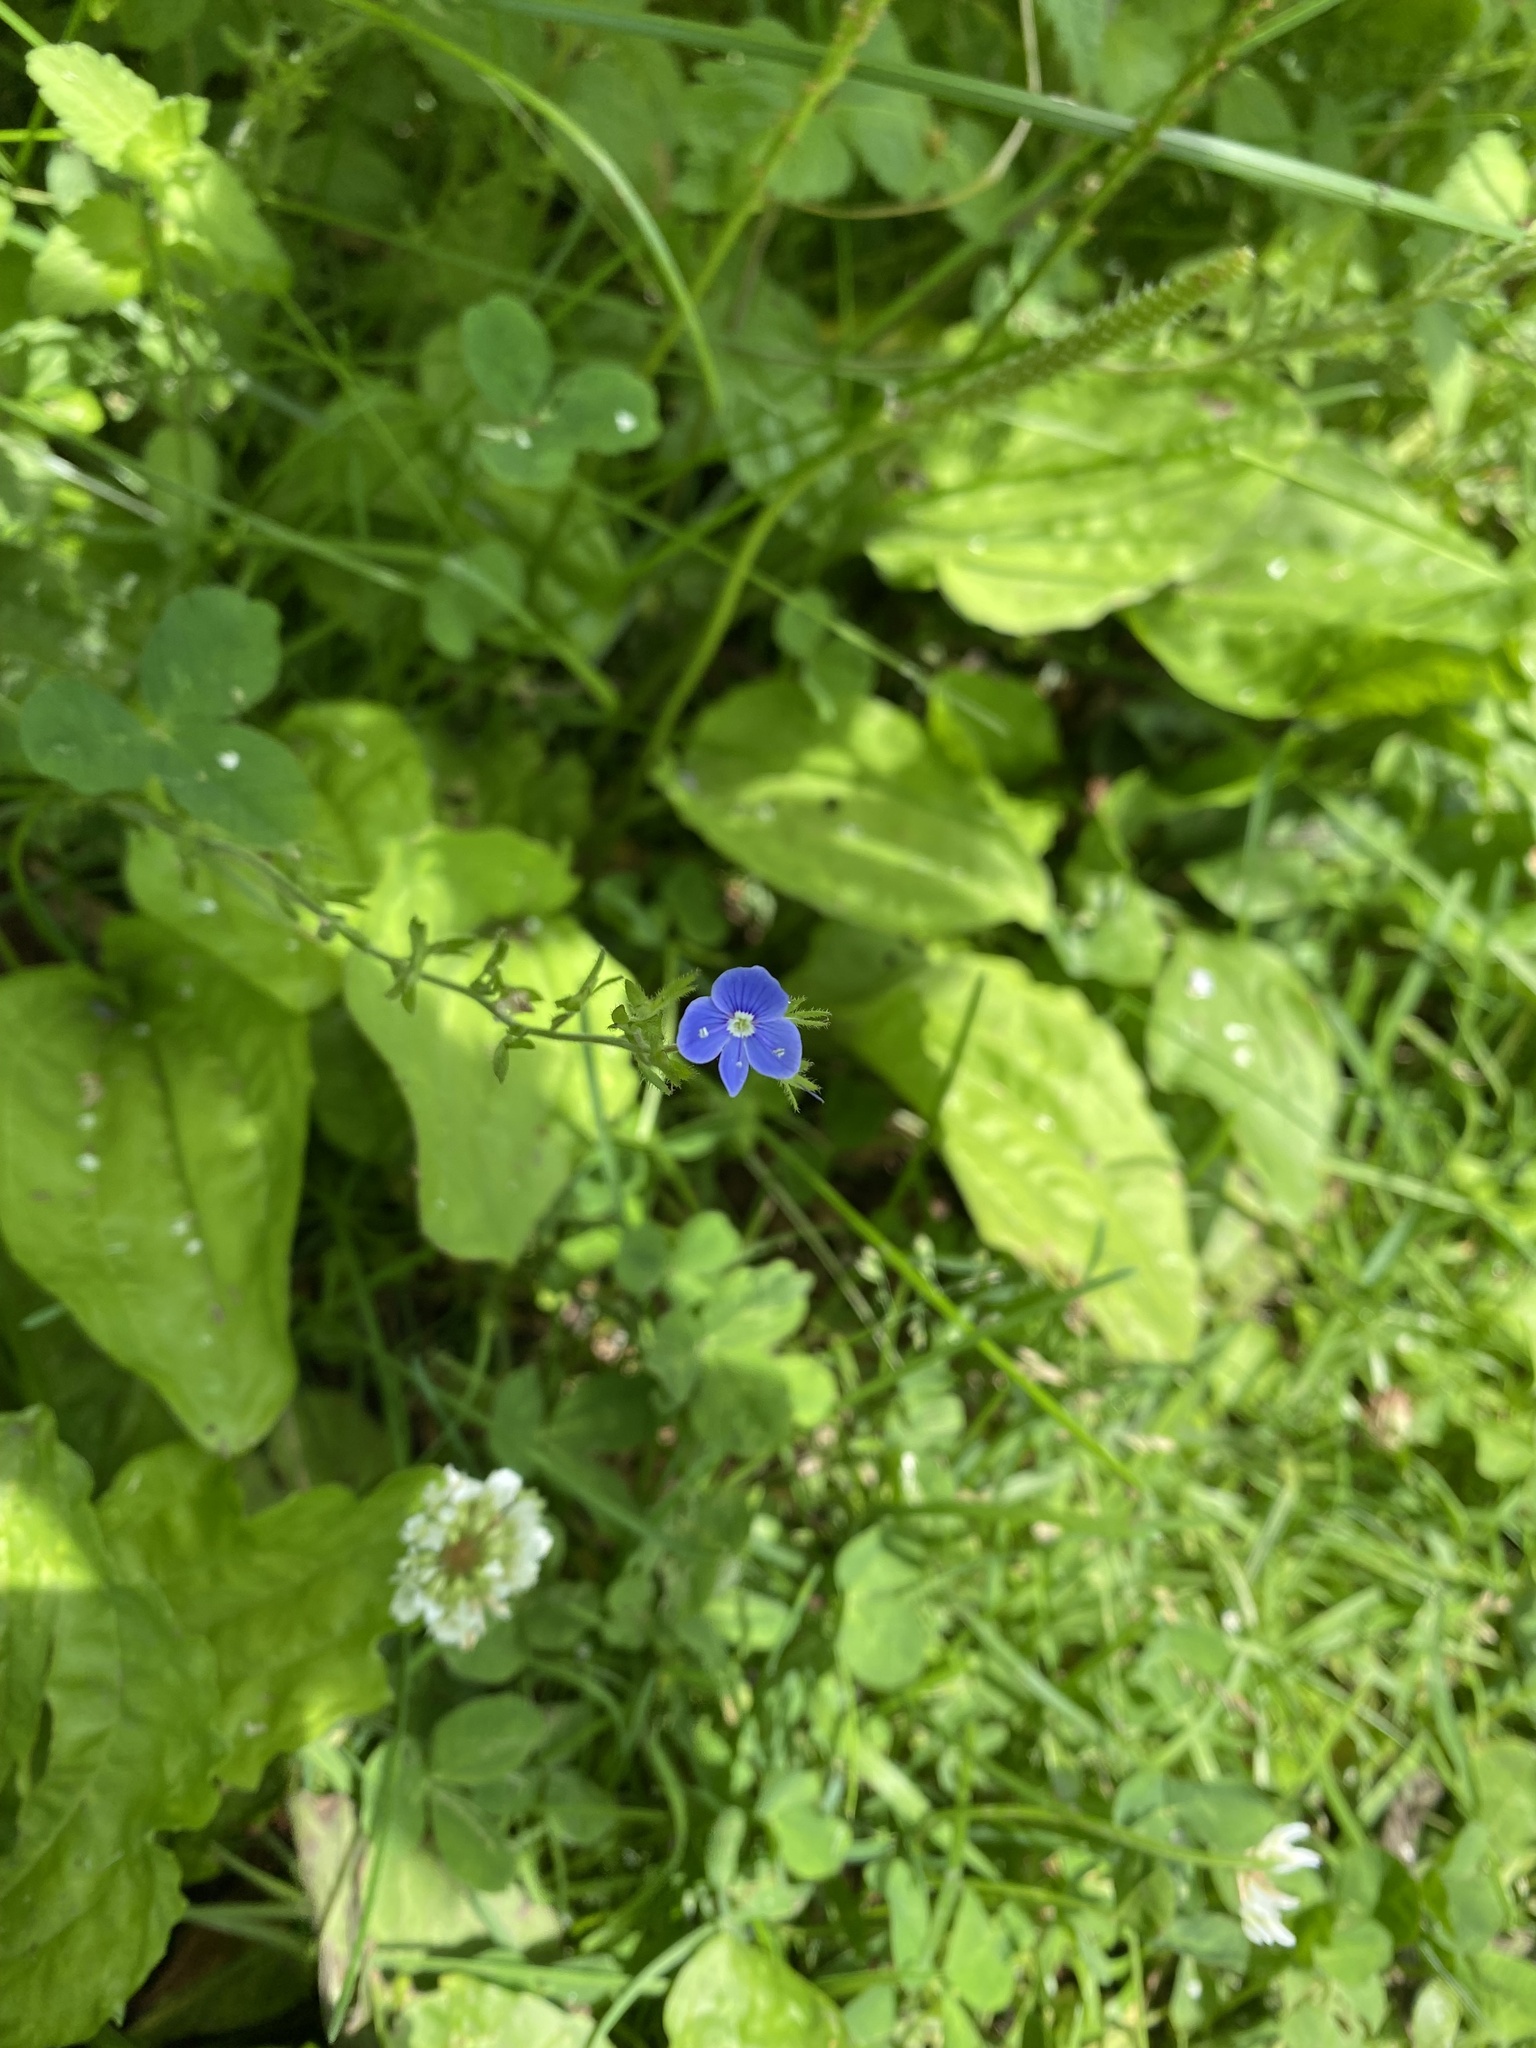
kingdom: Plantae
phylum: Tracheophyta
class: Magnoliopsida
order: Lamiales
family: Plantaginaceae
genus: Veronica
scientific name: Veronica chamaedrys
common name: Germander speedwell
